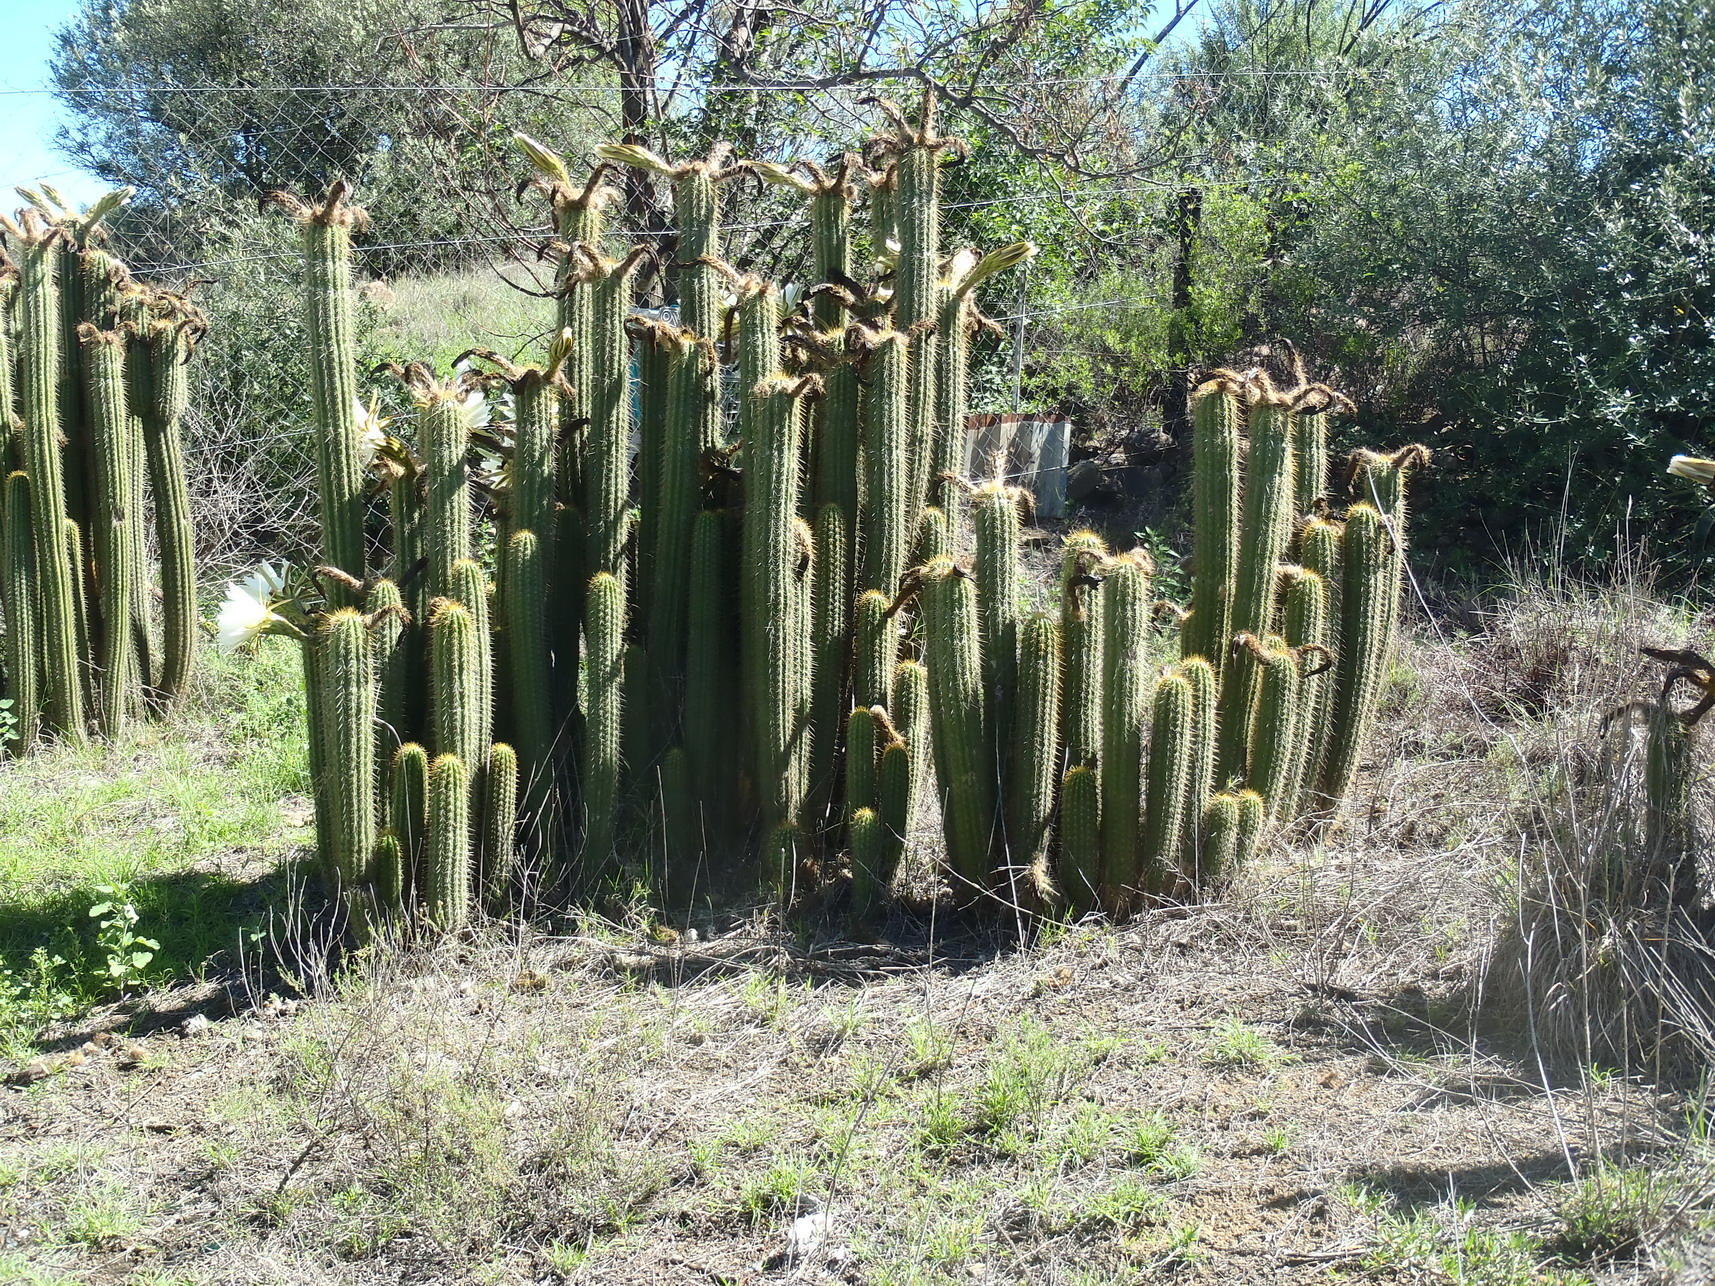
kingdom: Plantae
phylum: Tracheophyta
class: Magnoliopsida
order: Caryophyllales
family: Cactaceae
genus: Soehrensia
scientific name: Soehrensia spachiana
